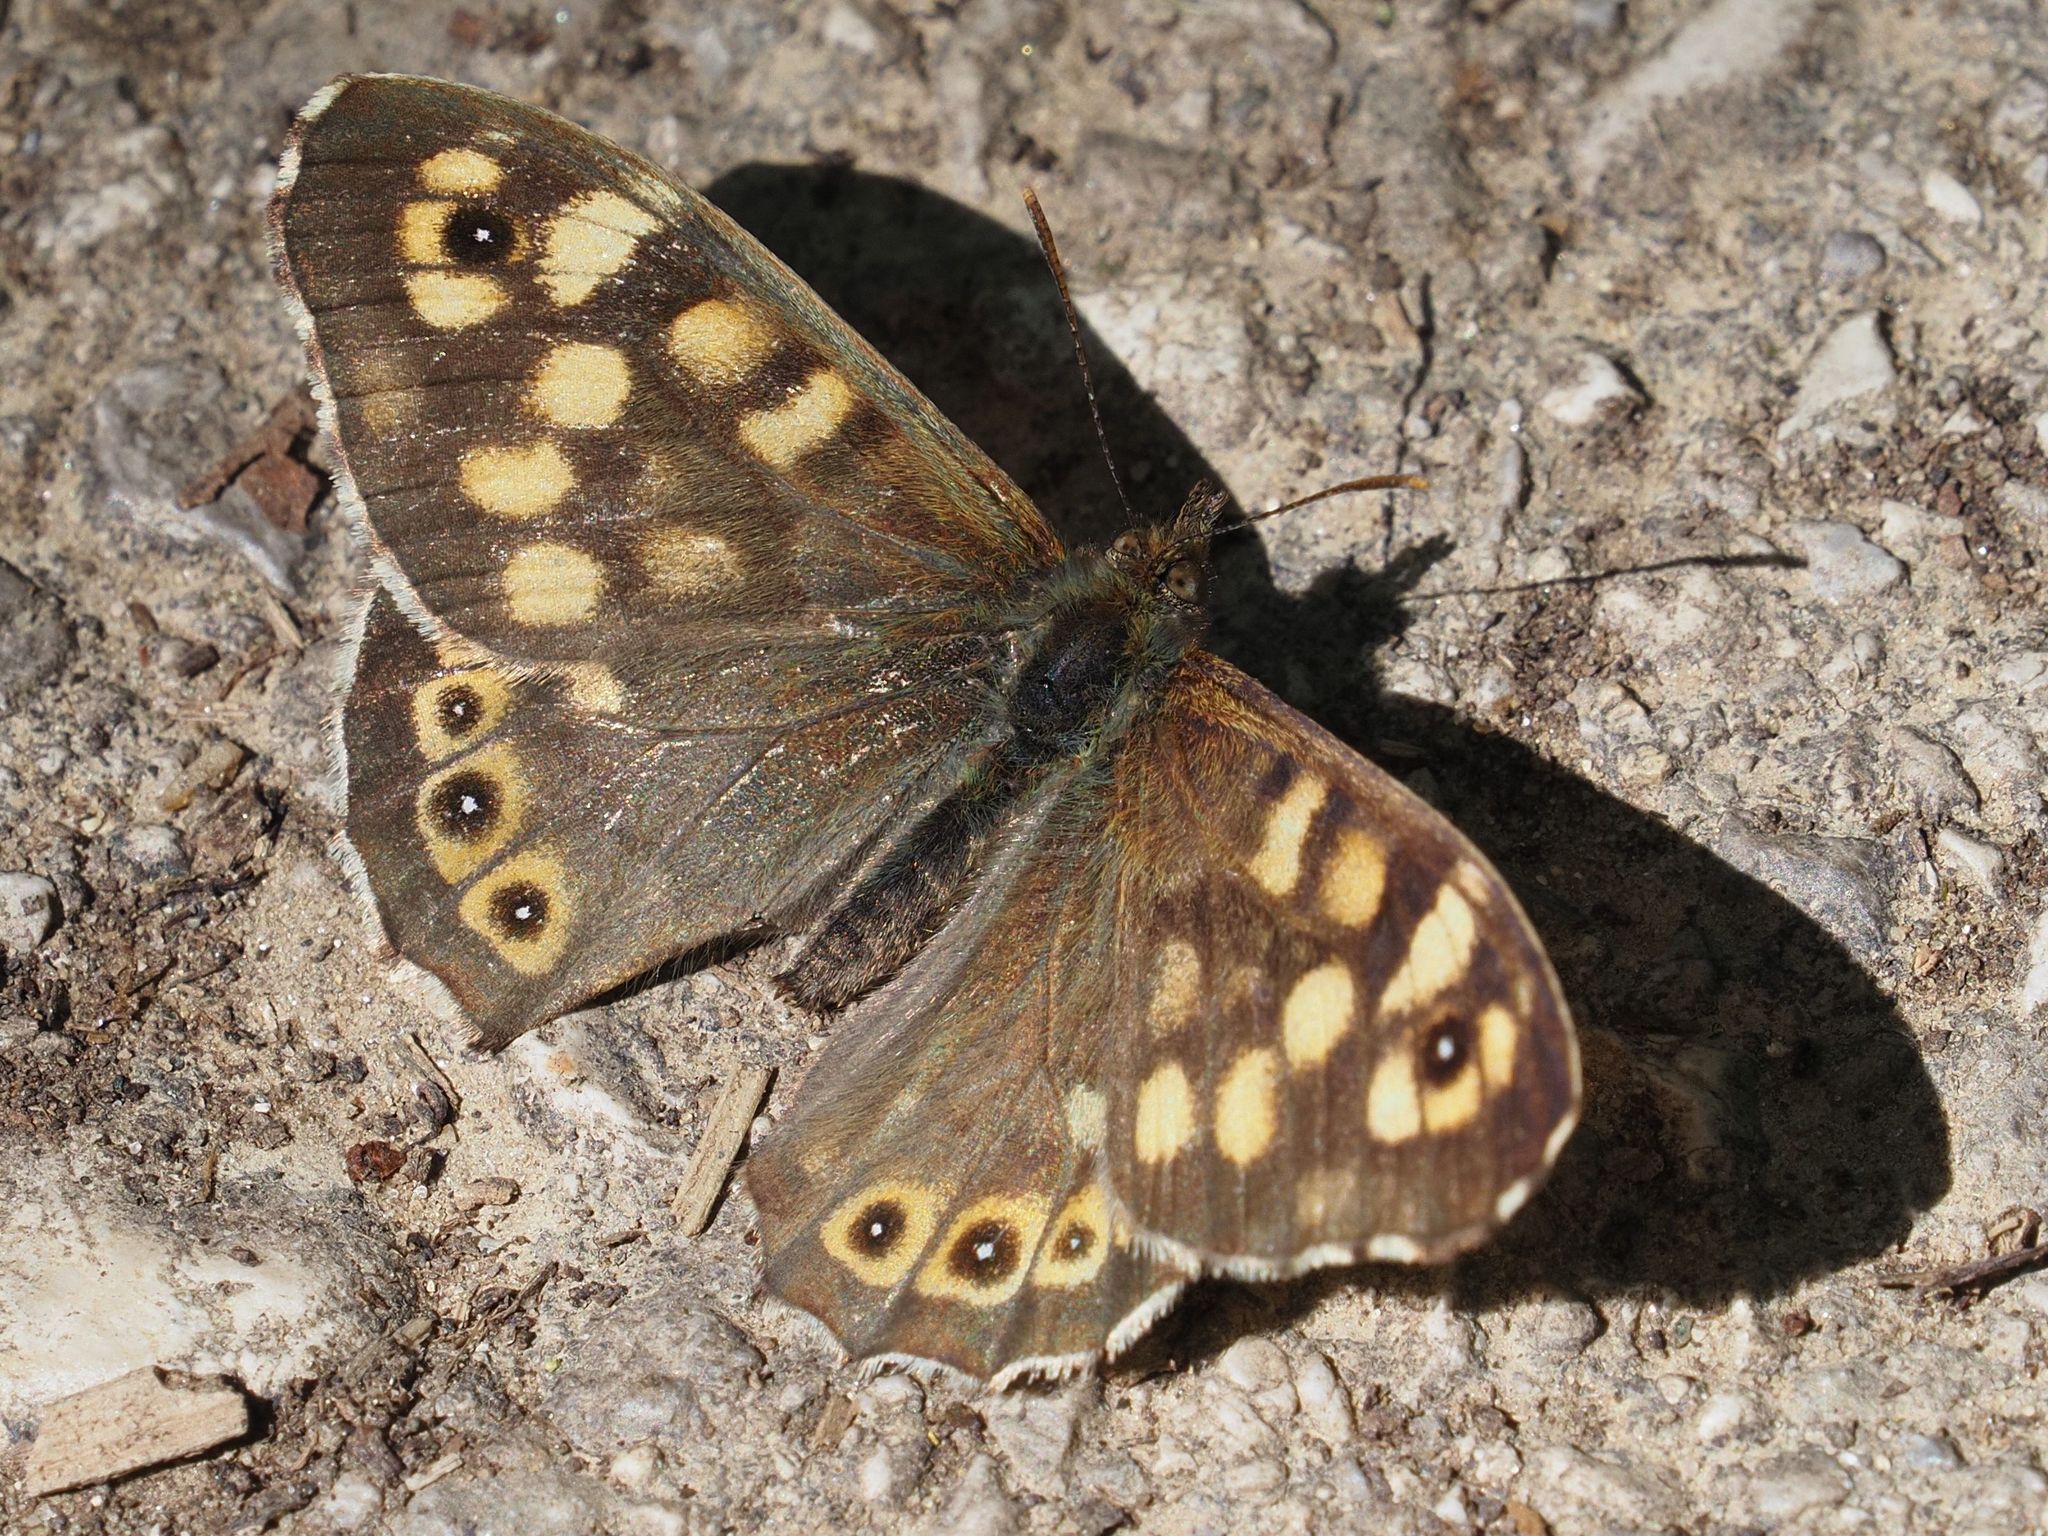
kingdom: Animalia
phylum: Arthropoda
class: Insecta
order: Lepidoptera
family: Nymphalidae
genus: Pararge
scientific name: Pararge aegeria
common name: Speckled wood
